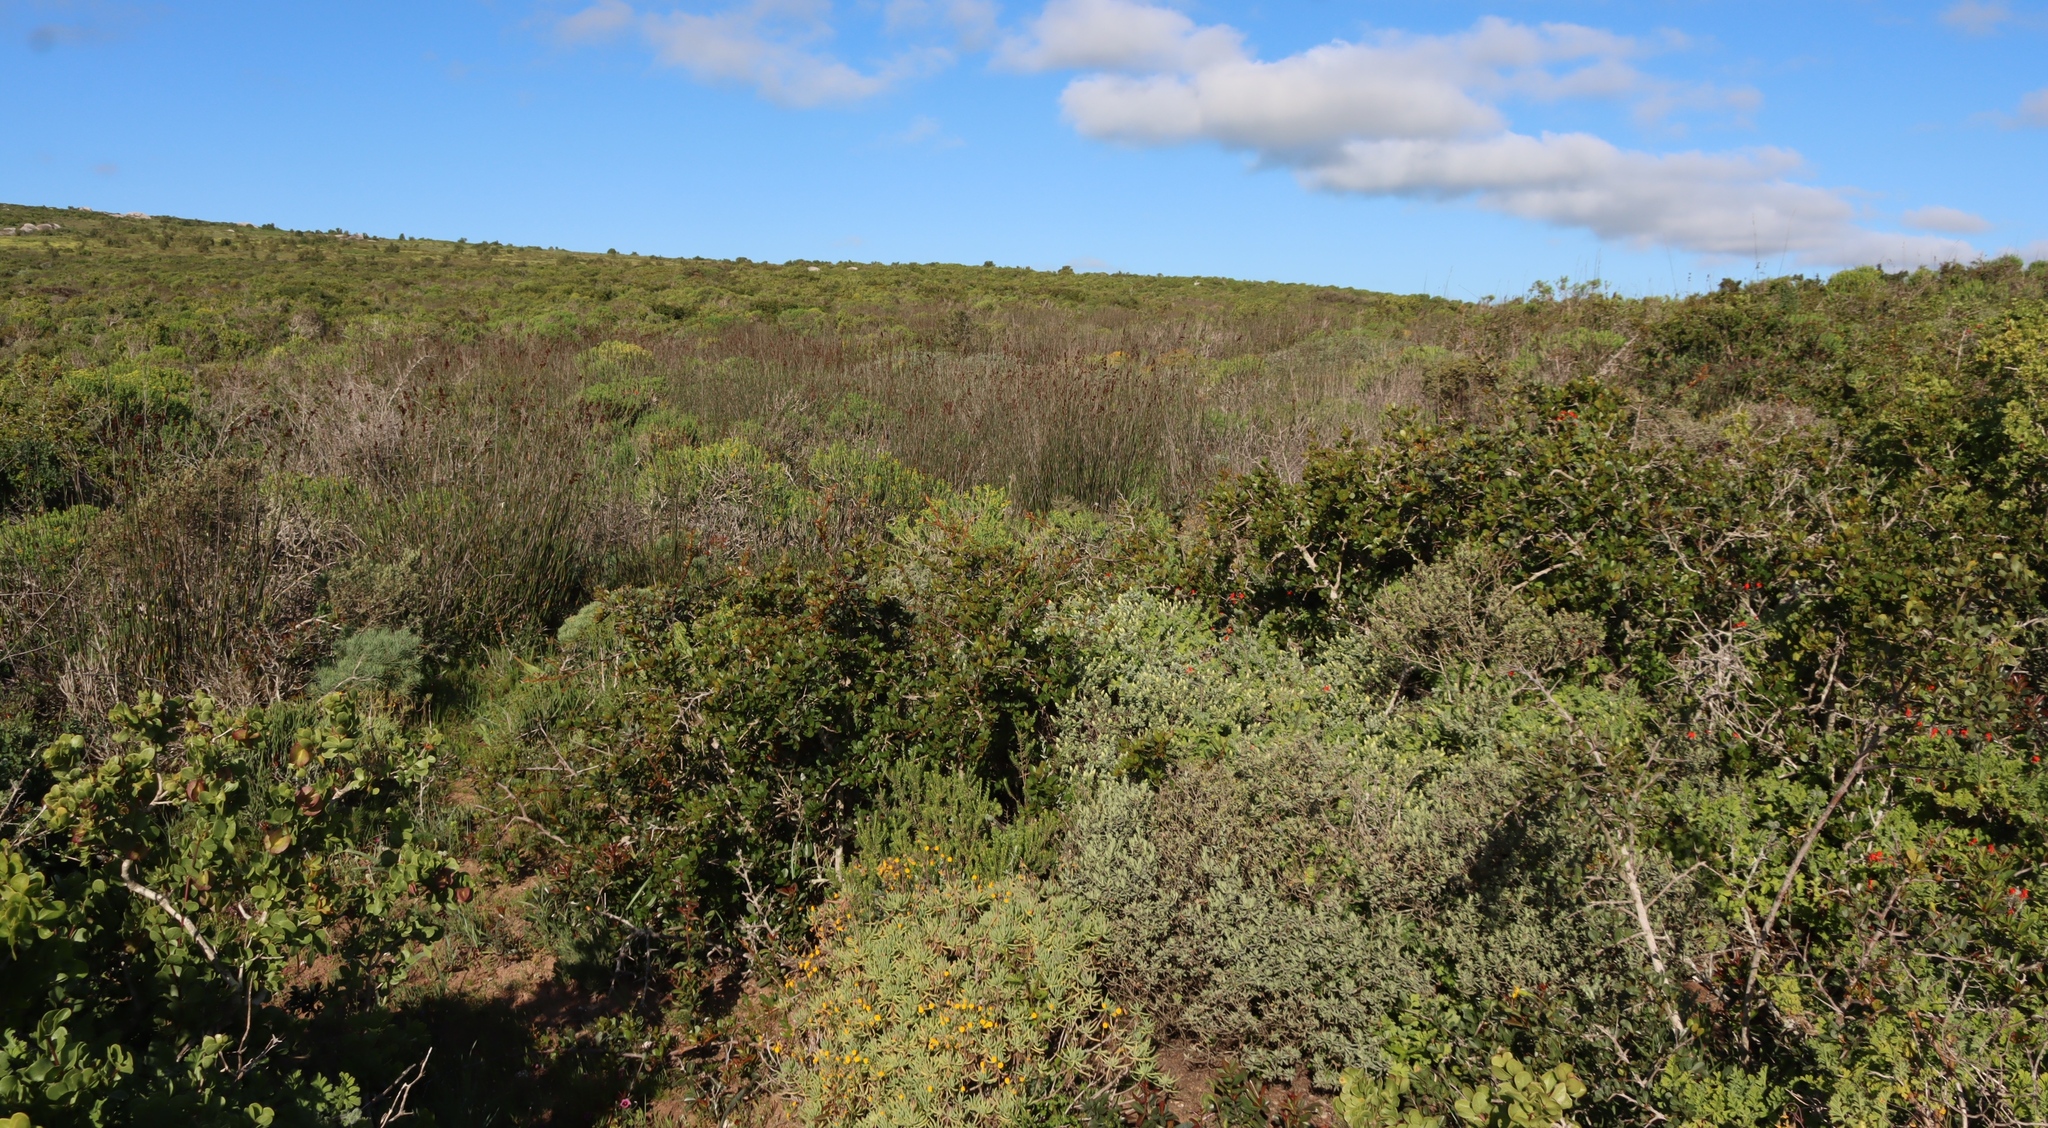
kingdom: Plantae
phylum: Tracheophyta
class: Liliopsida
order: Poales
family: Restionaceae
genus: Thamnochortus
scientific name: Thamnochortus spicigerus
